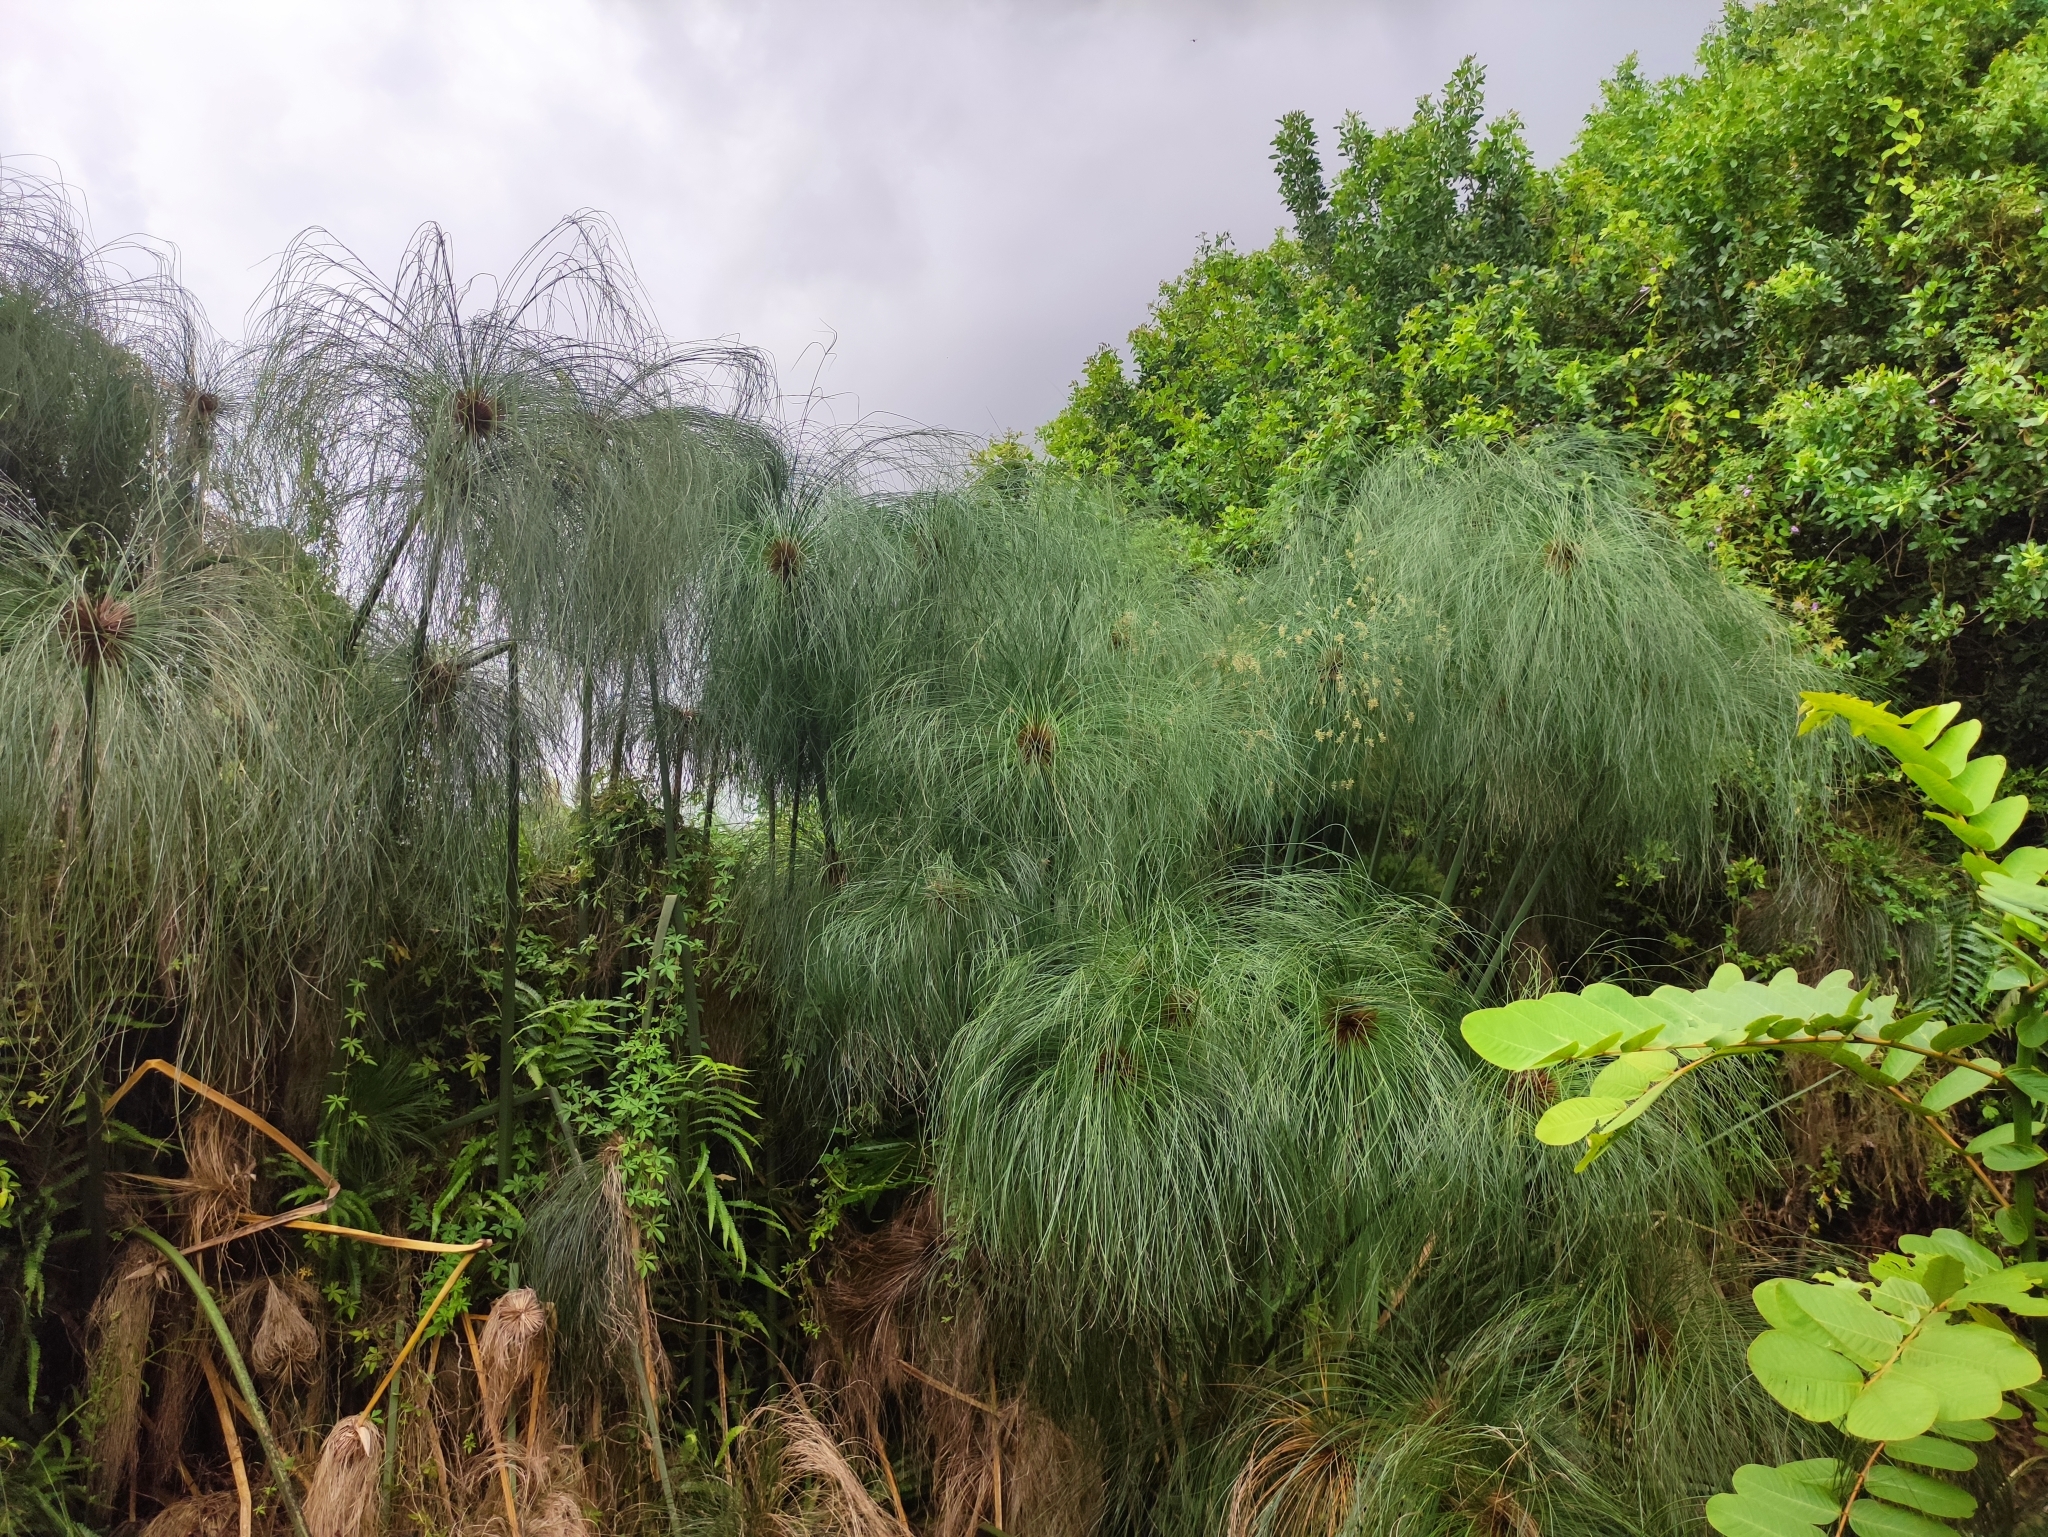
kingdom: Plantae
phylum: Tracheophyta
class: Liliopsida
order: Poales
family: Cyperaceae
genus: Cyperus
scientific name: Cyperus papyrus
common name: Papyrus
